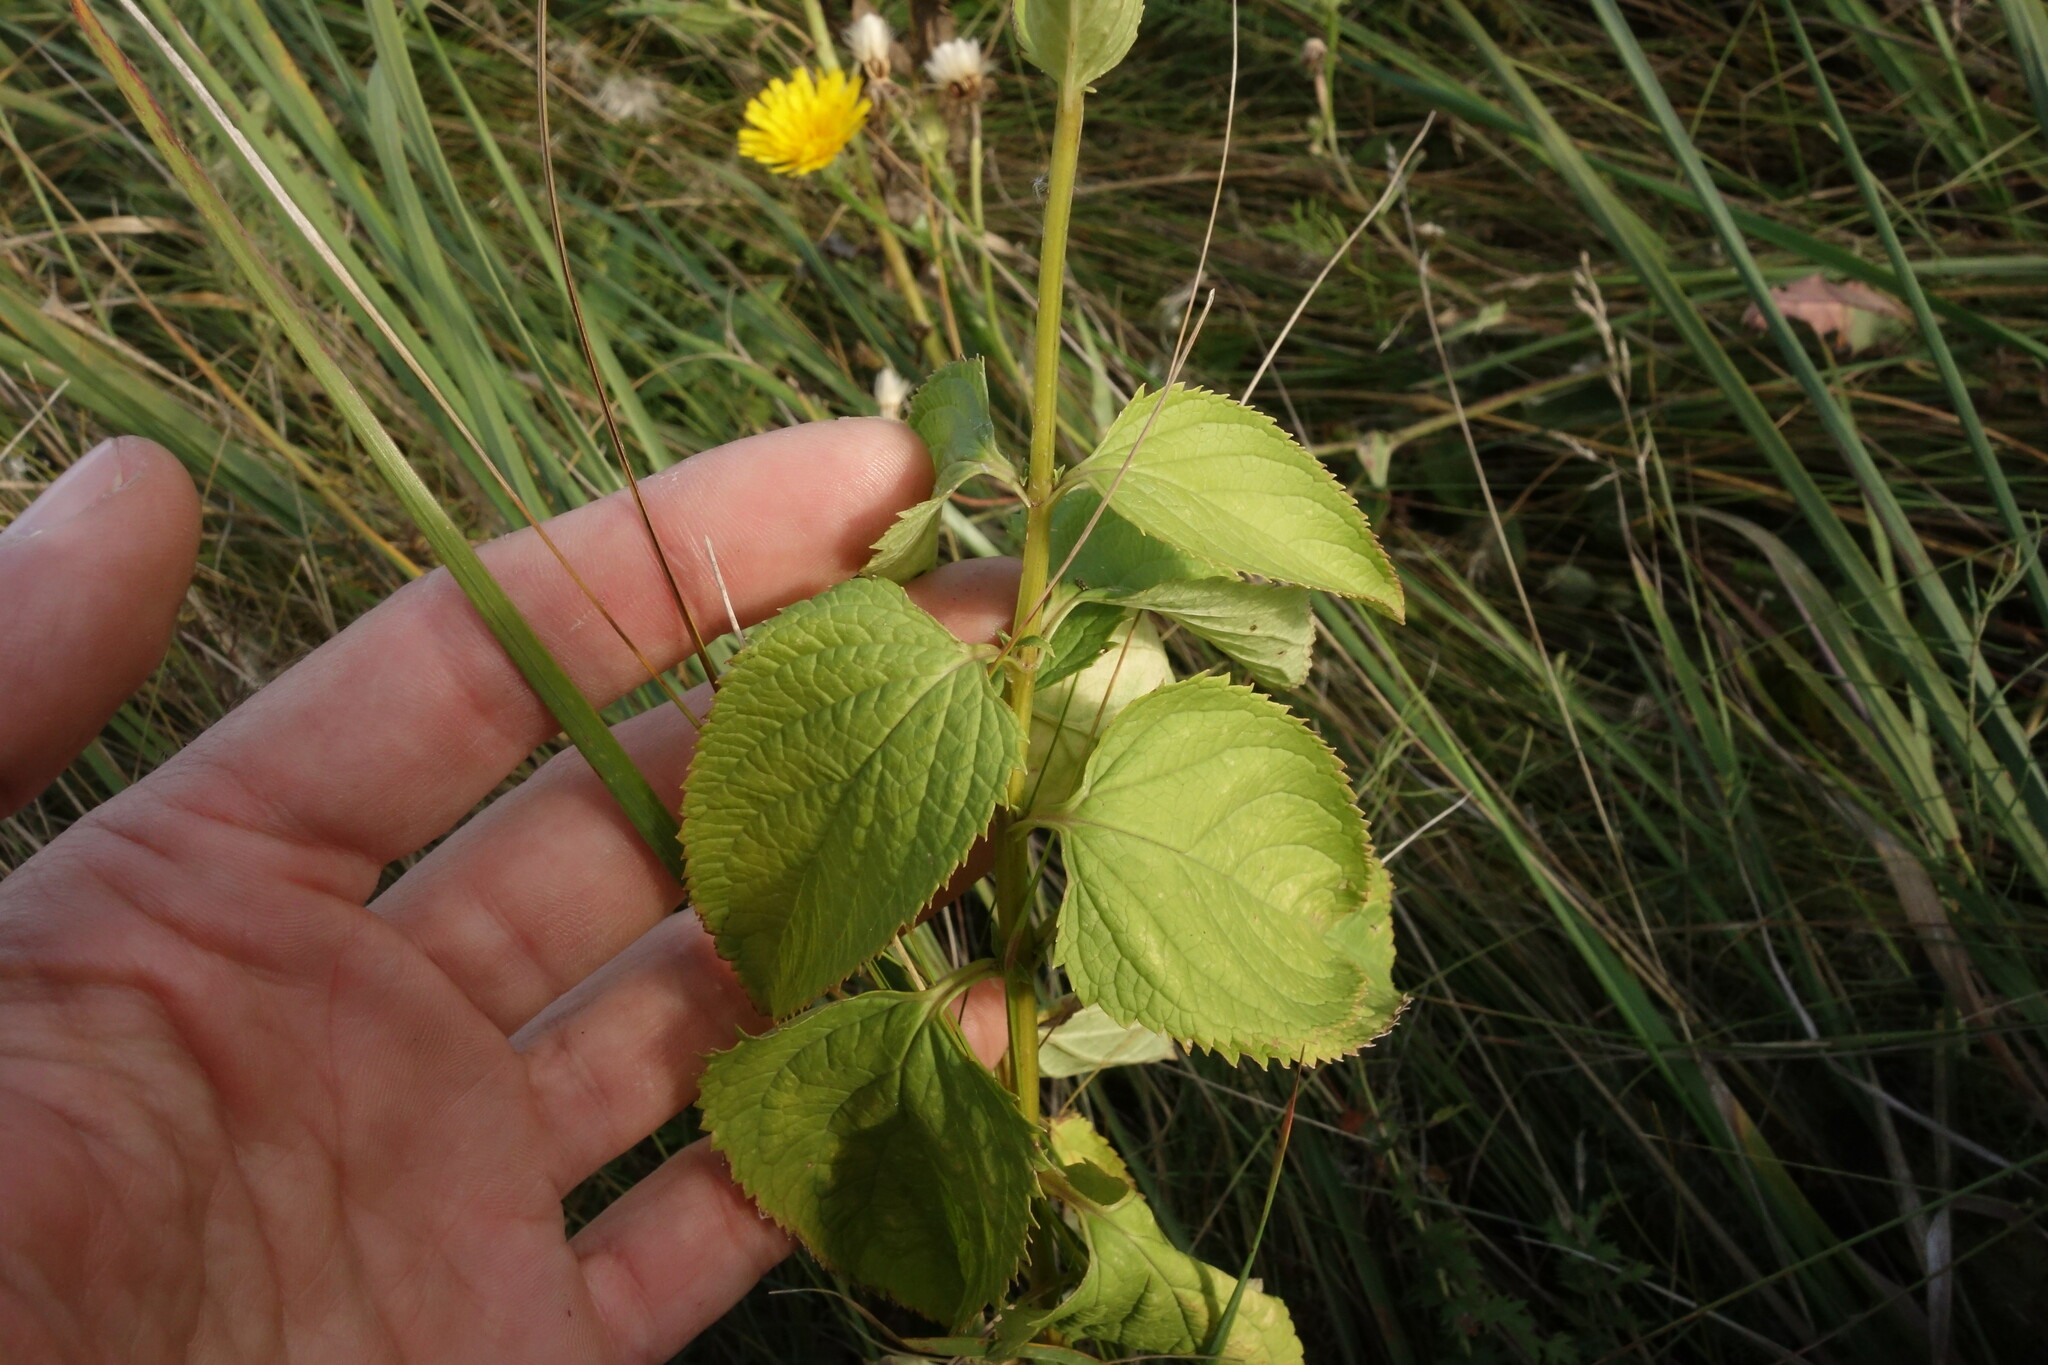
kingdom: Plantae
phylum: Tracheophyta
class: Magnoliopsida
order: Lamiales
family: Scrophulariaceae
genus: Scrophularia
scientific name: Scrophularia nodosa
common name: Common figwort
